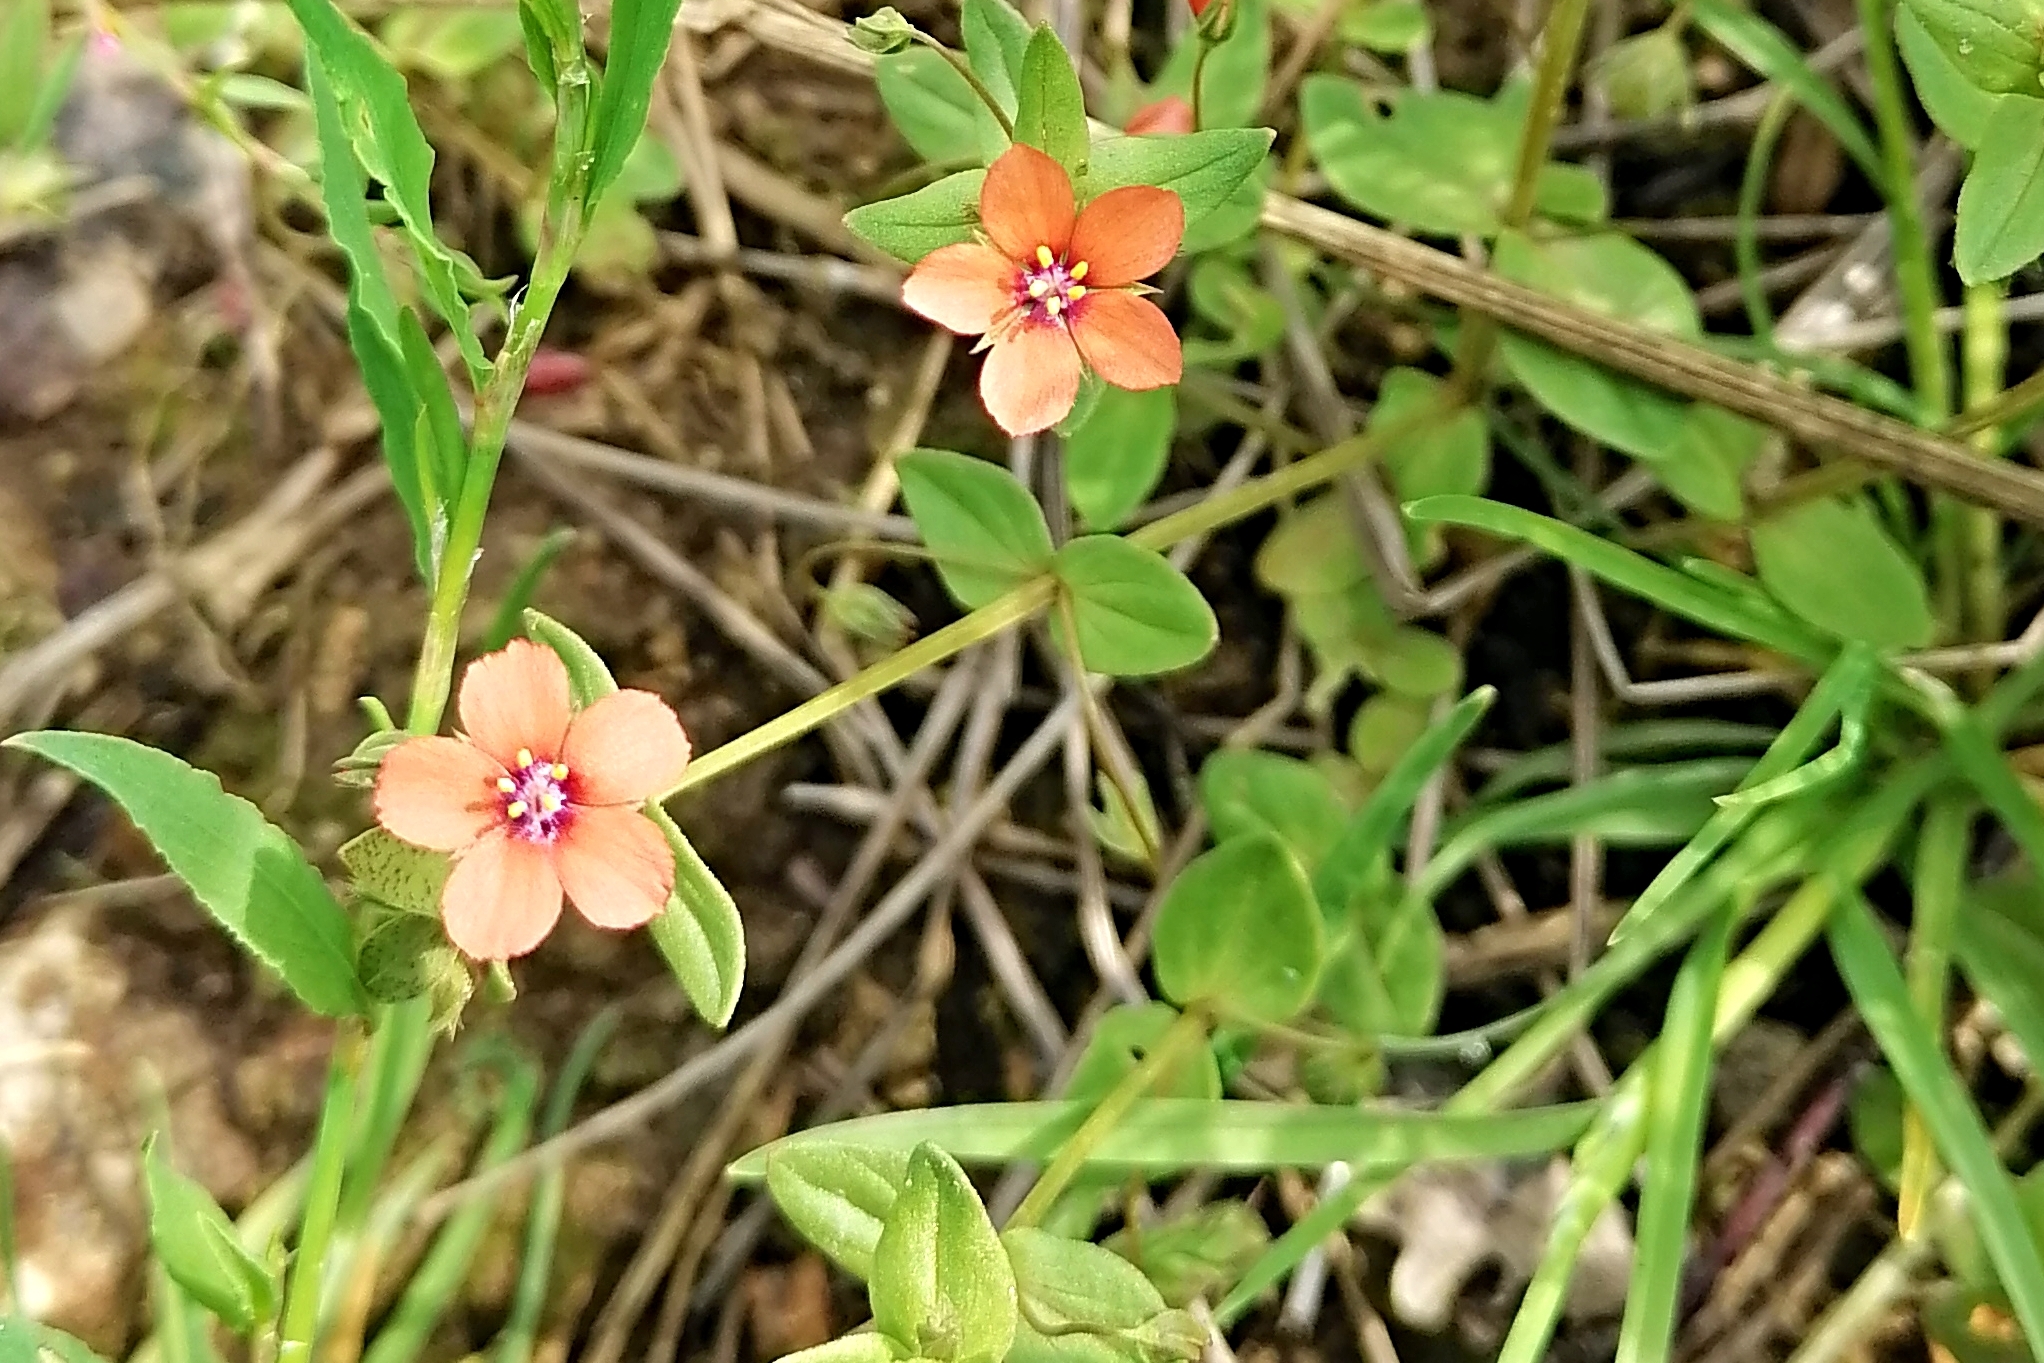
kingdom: Plantae
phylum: Tracheophyta
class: Magnoliopsida
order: Ericales
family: Primulaceae
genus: Lysimachia
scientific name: Lysimachia arvensis
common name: Scarlet pimpernel
